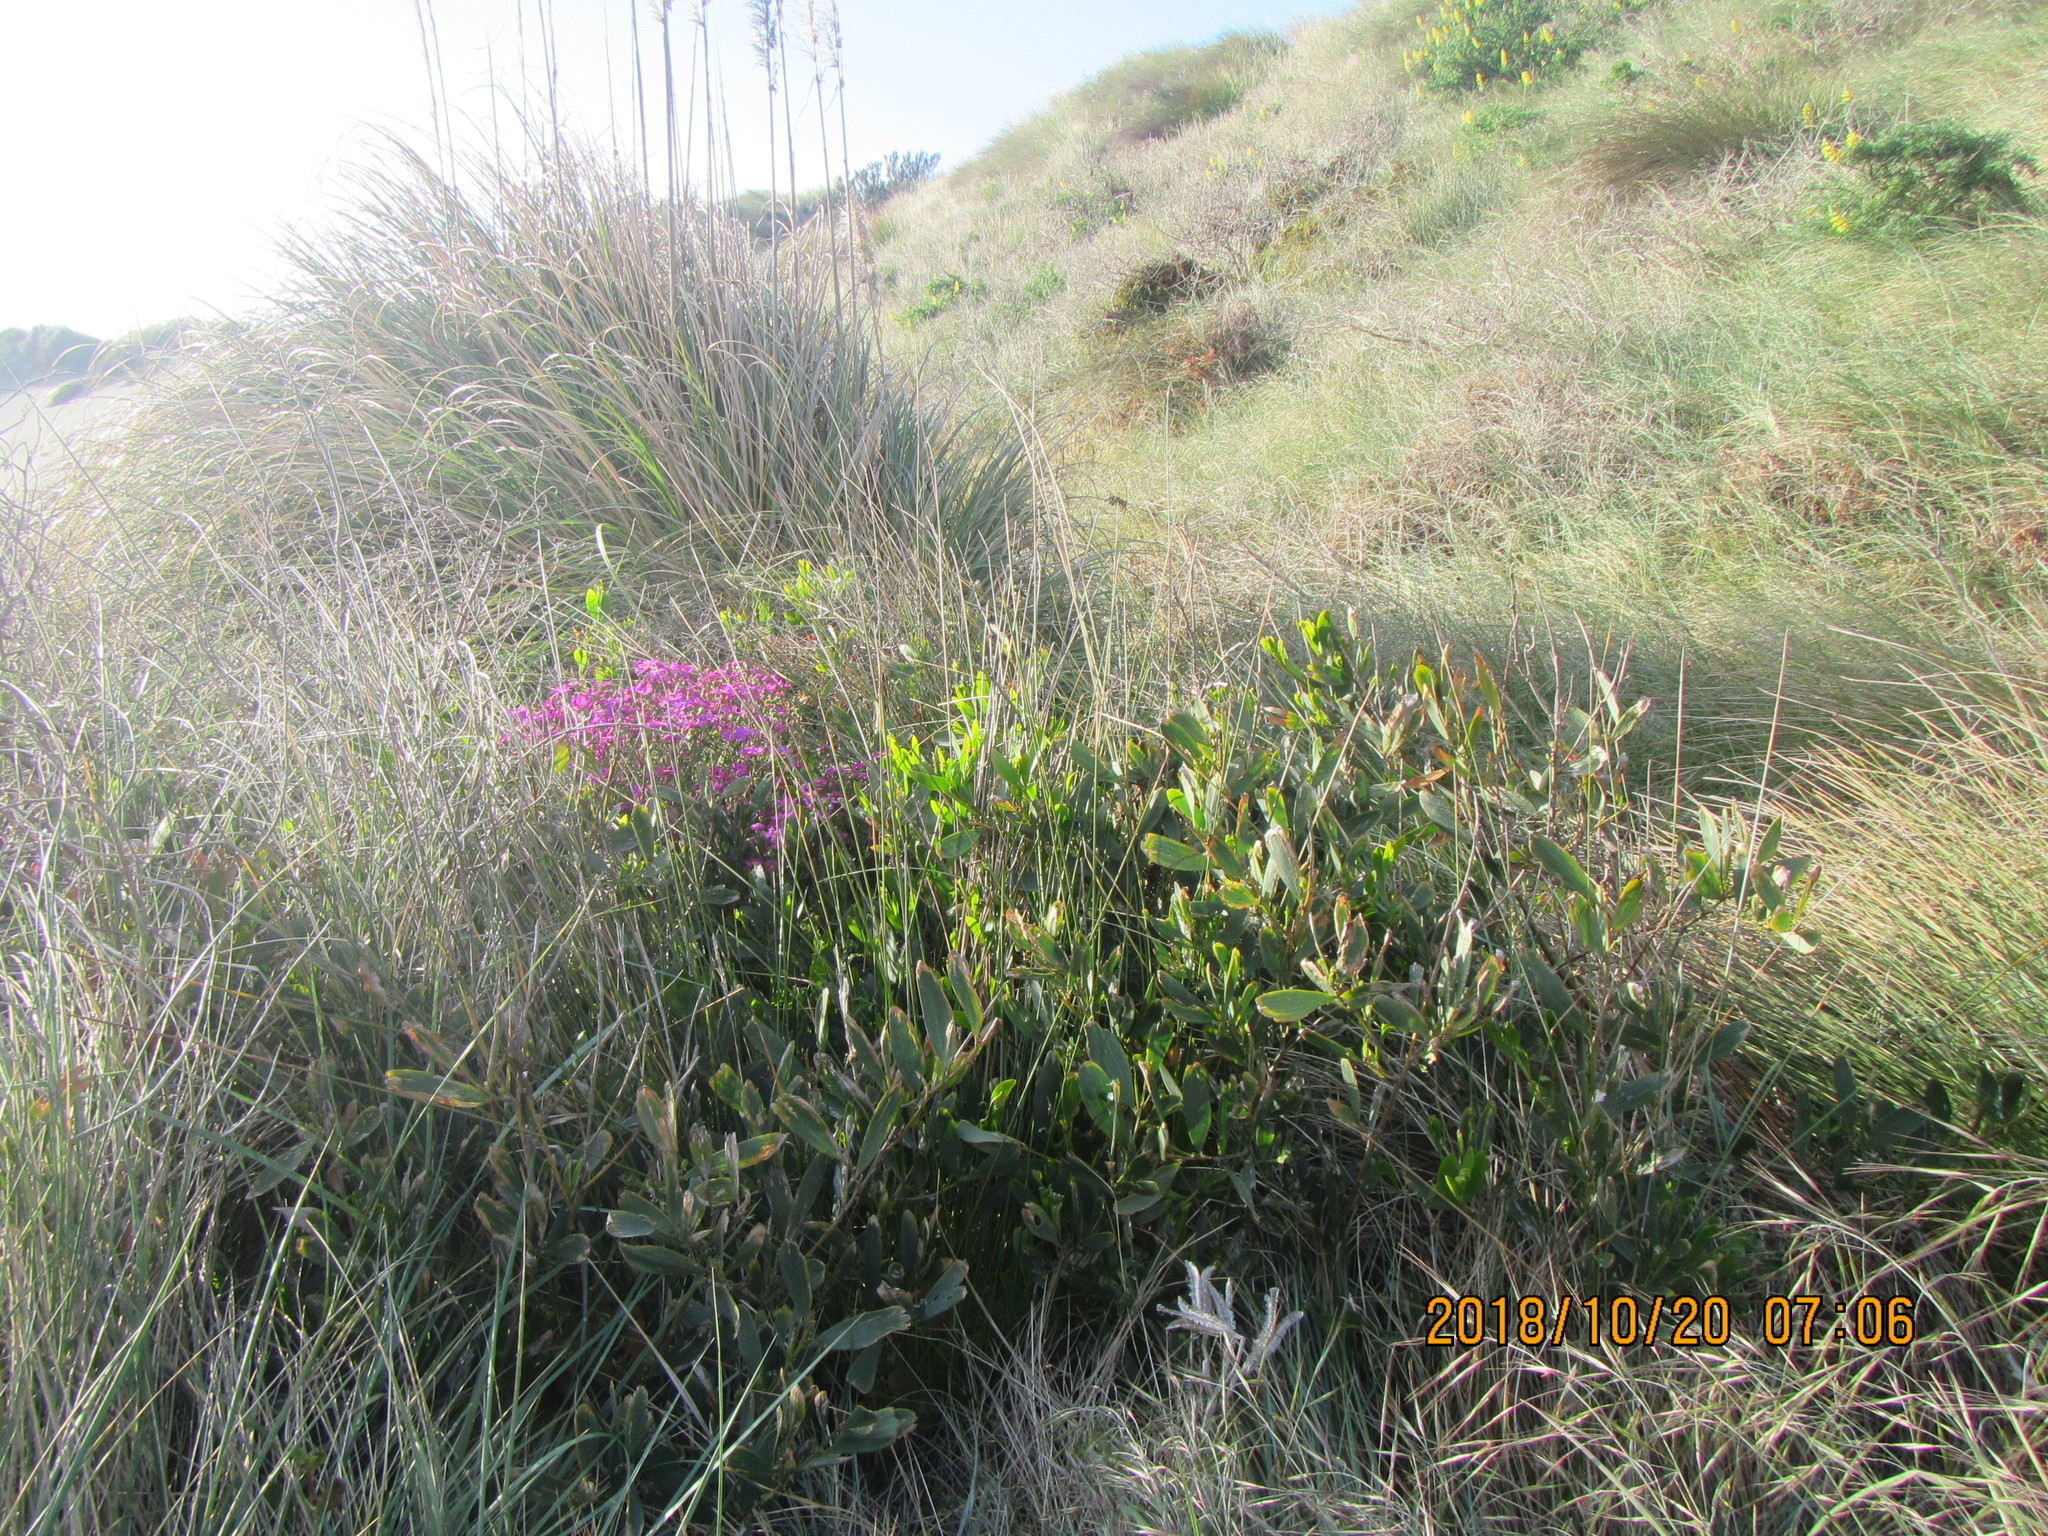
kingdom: Plantae
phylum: Tracheophyta
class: Magnoliopsida
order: Fabales
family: Fabaceae
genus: Acacia
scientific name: Acacia longifolia
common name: Sydney golden wattle
